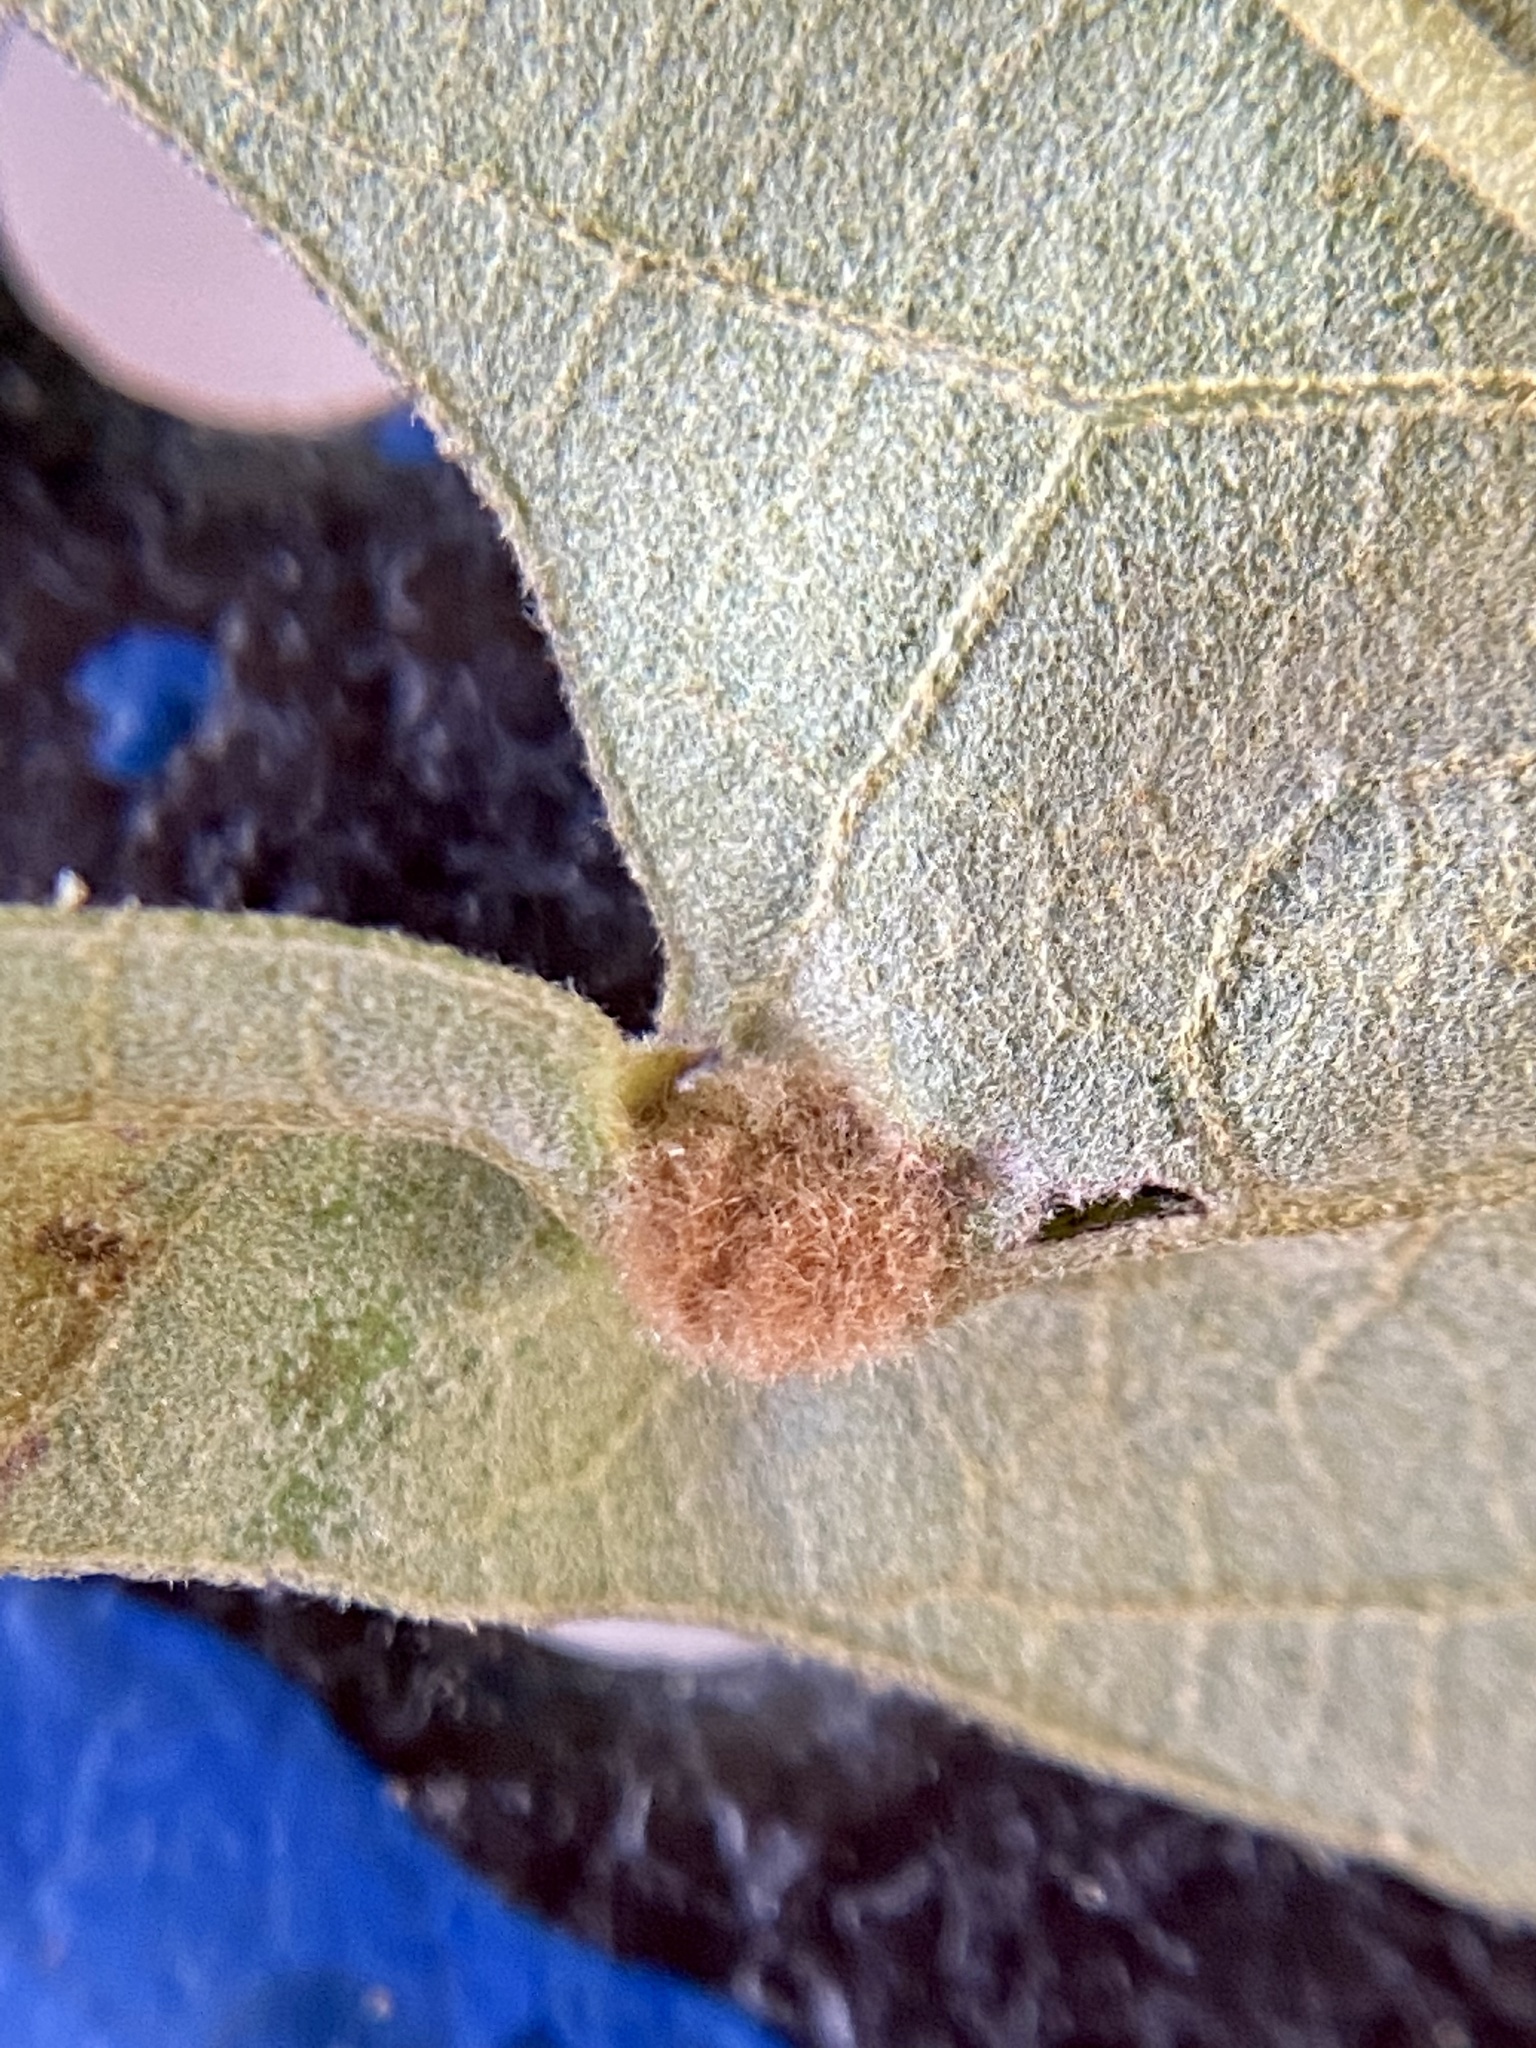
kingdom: Animalia
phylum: Arthropoda
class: Insecta
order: Diptera
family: Cecidomyiidae
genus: Macrodiplosis
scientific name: Macrodiplosis niveipila
